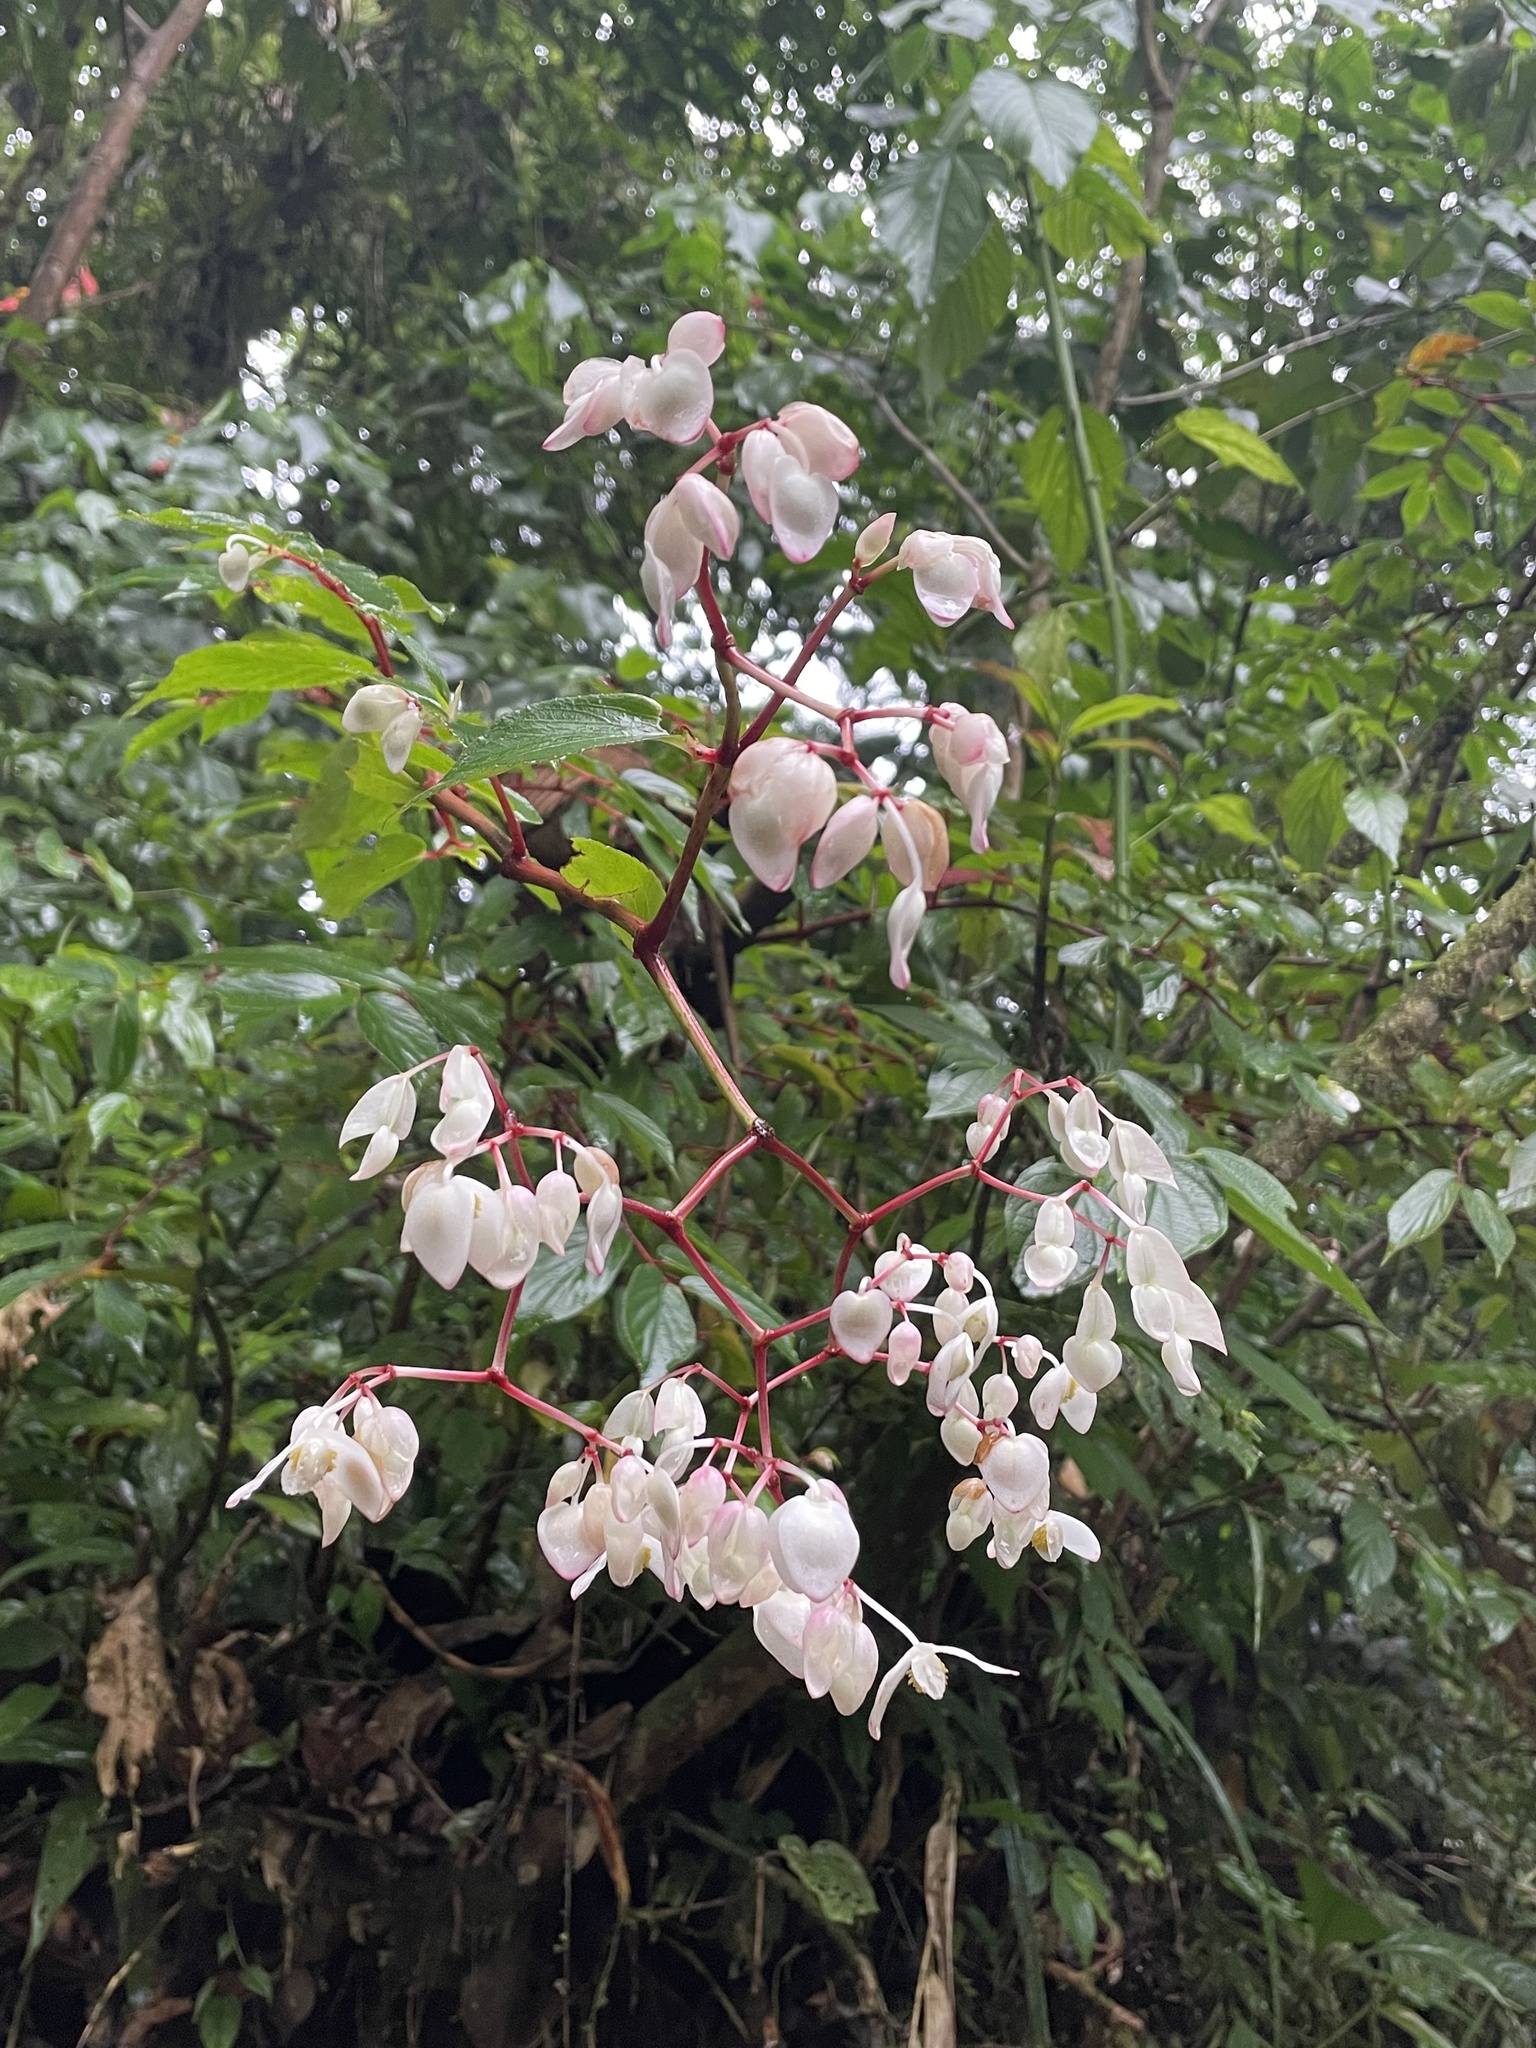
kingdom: Plantae
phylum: Tracheophyta
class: Magnoliopsida
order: Cucurbitales
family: Begoniaceae
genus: Begonia
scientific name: Begonia guaduensis
